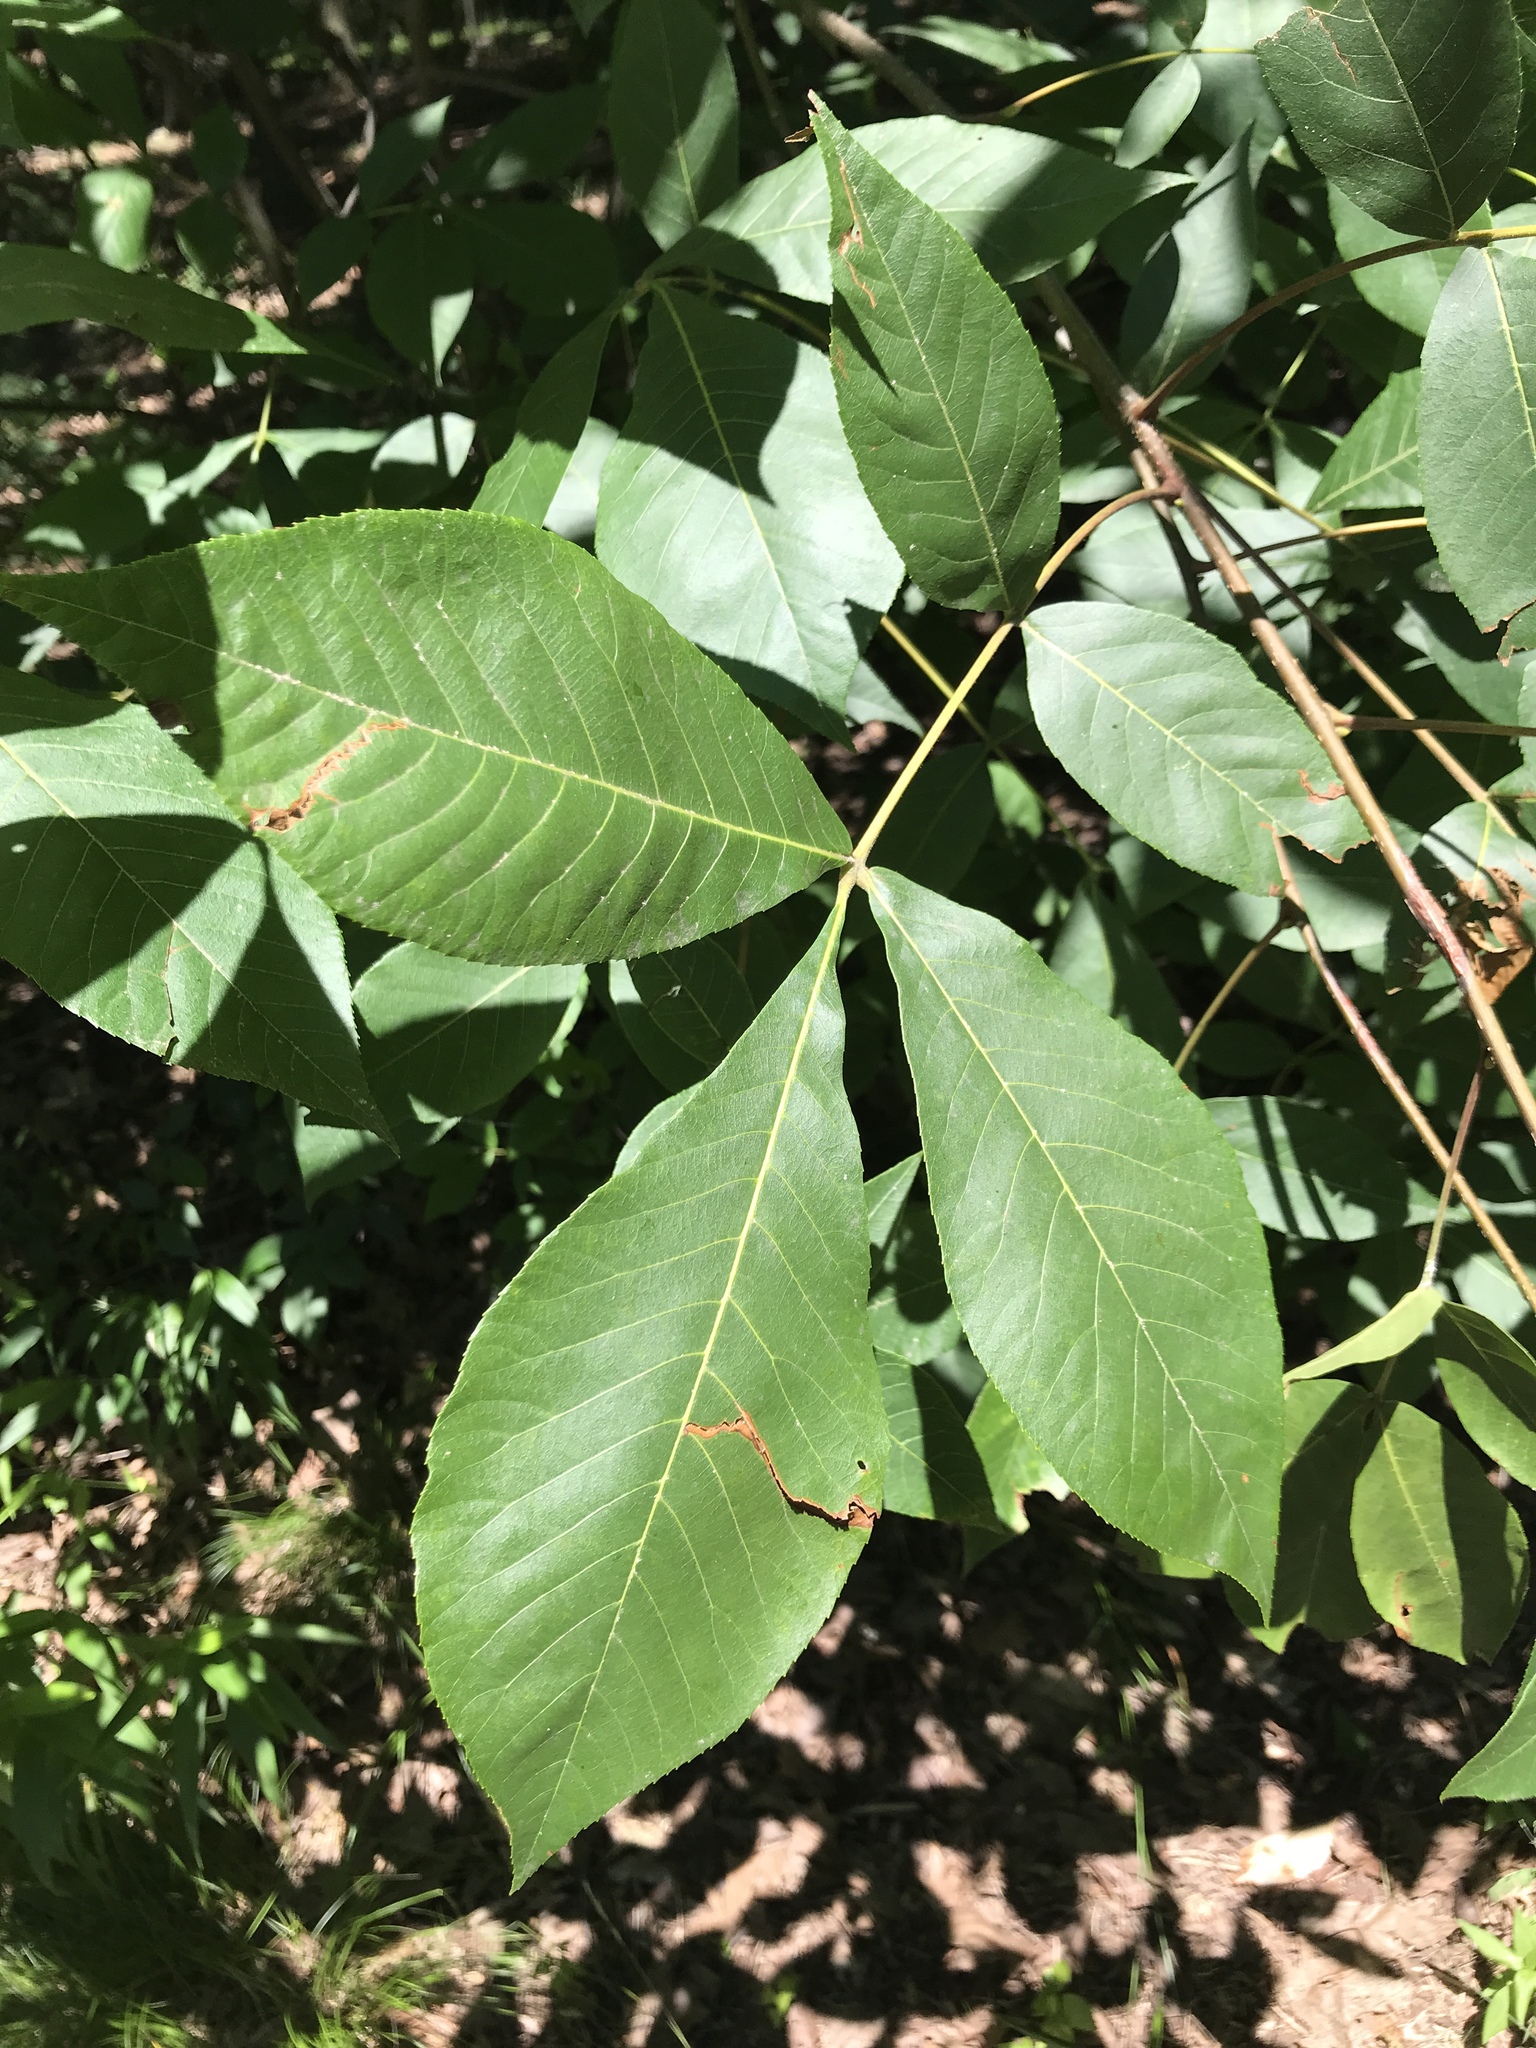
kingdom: Plantae
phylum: Tracheophyta
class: Magnoliopsida
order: Fagales
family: Juglandaceae
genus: Carya
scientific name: Carya ovata
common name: Shagbark hickory
